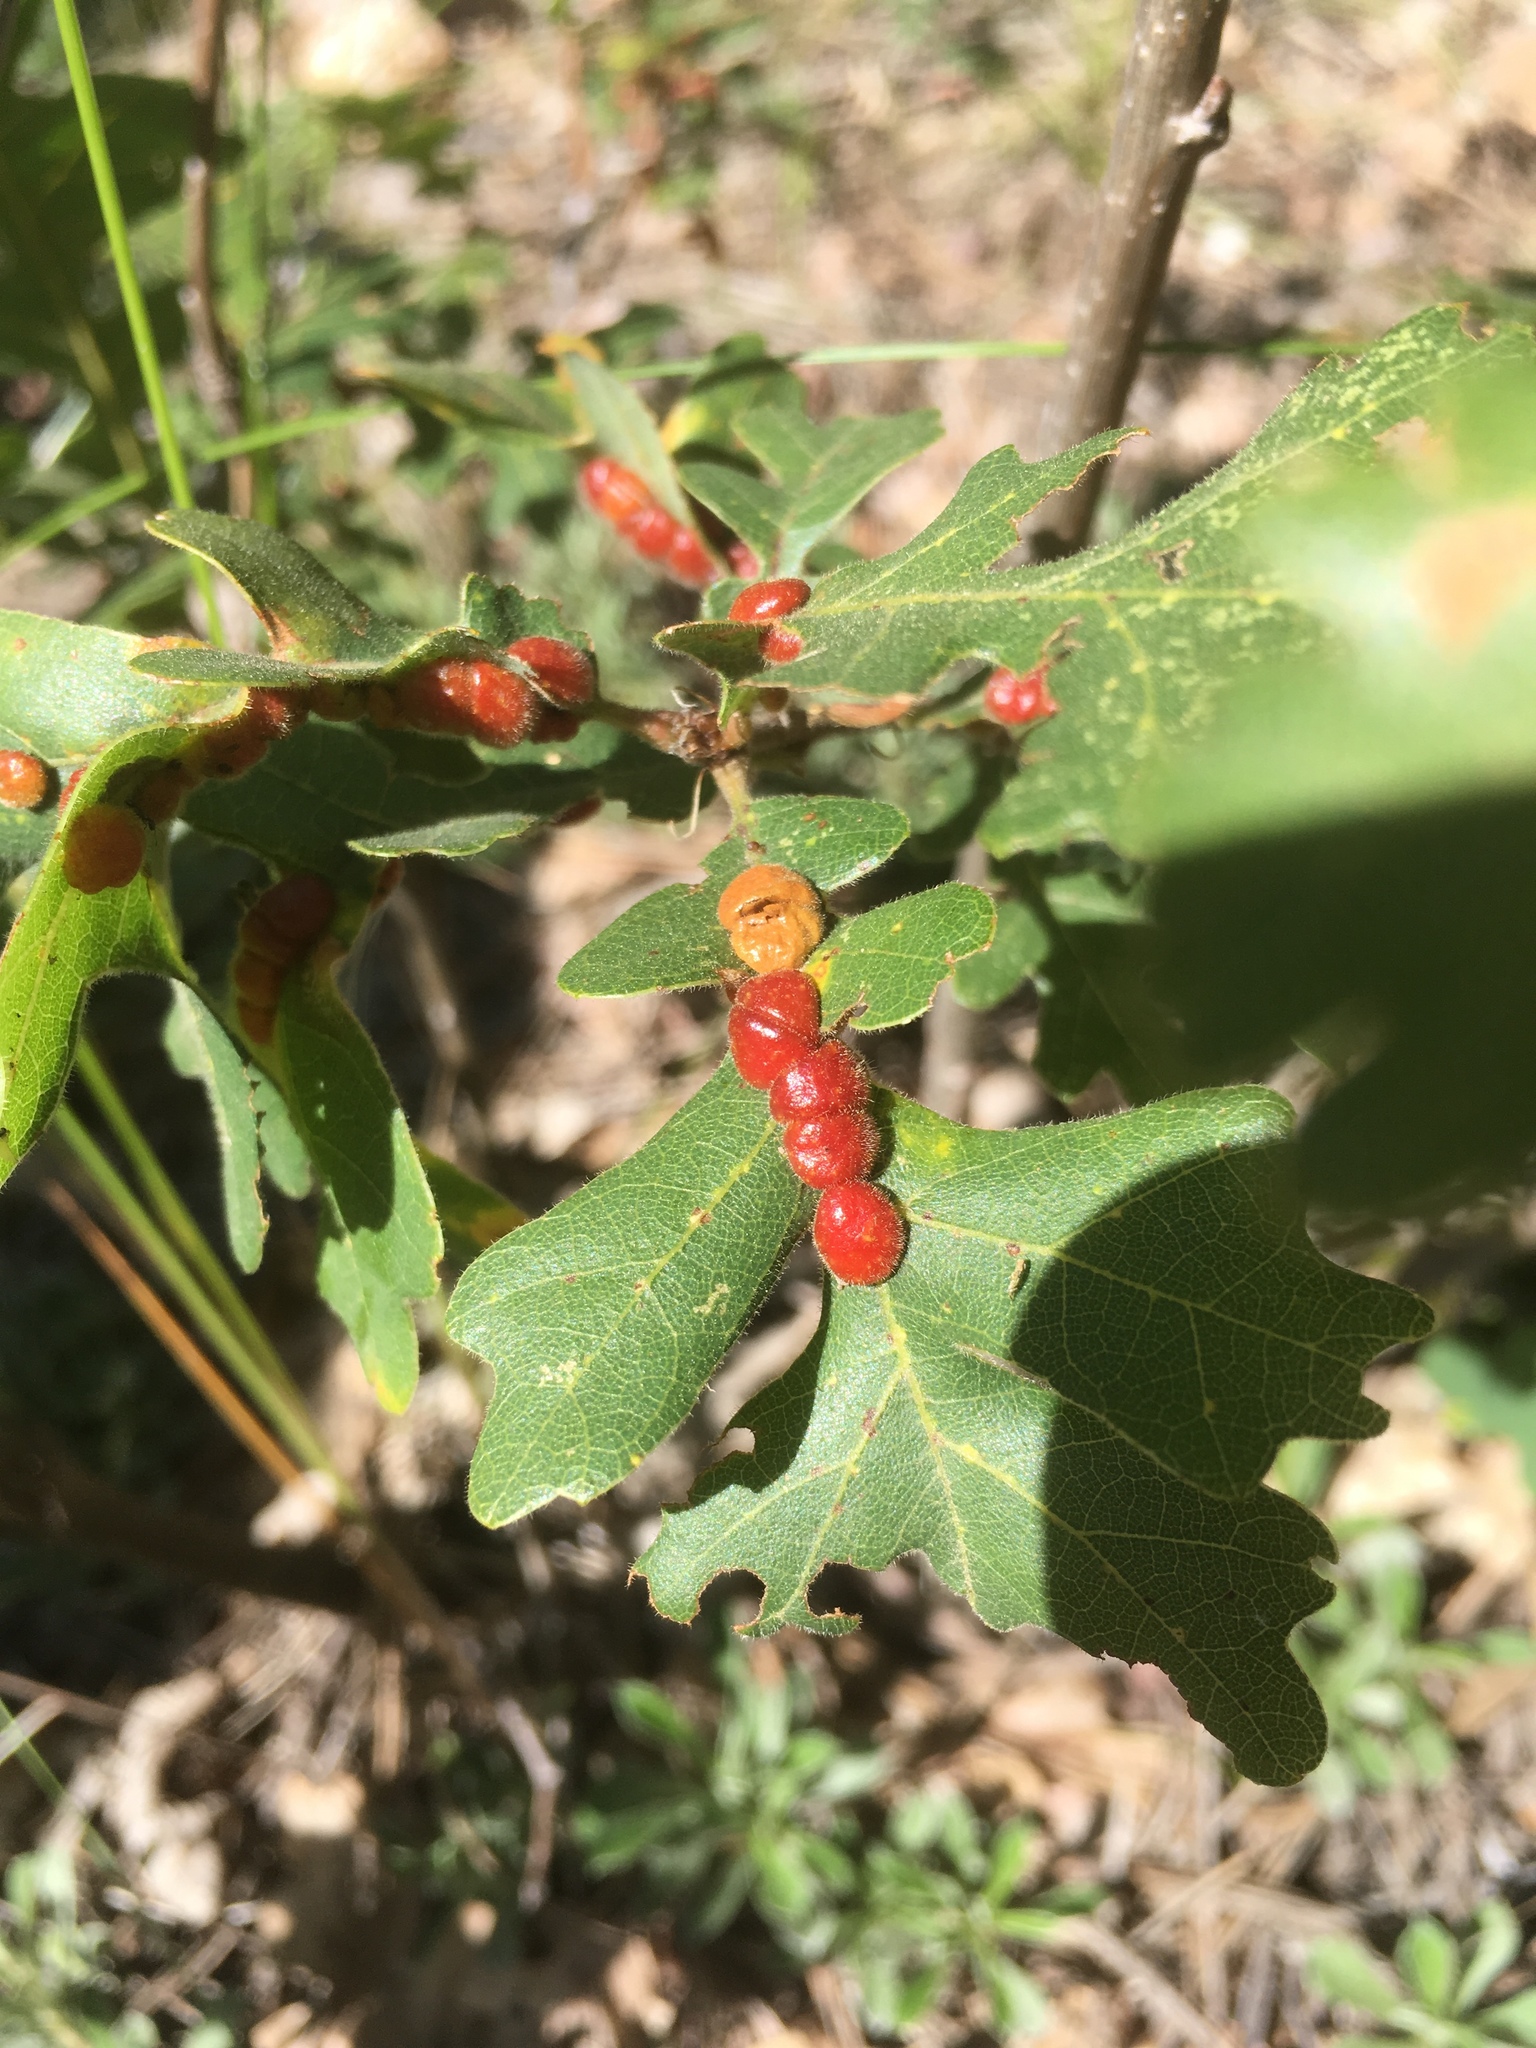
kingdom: Animalia
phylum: Arthropoda
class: Insecta
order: Hymenoptera
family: Cynipidae
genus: Trigonaspis
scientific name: Trigonaspis
